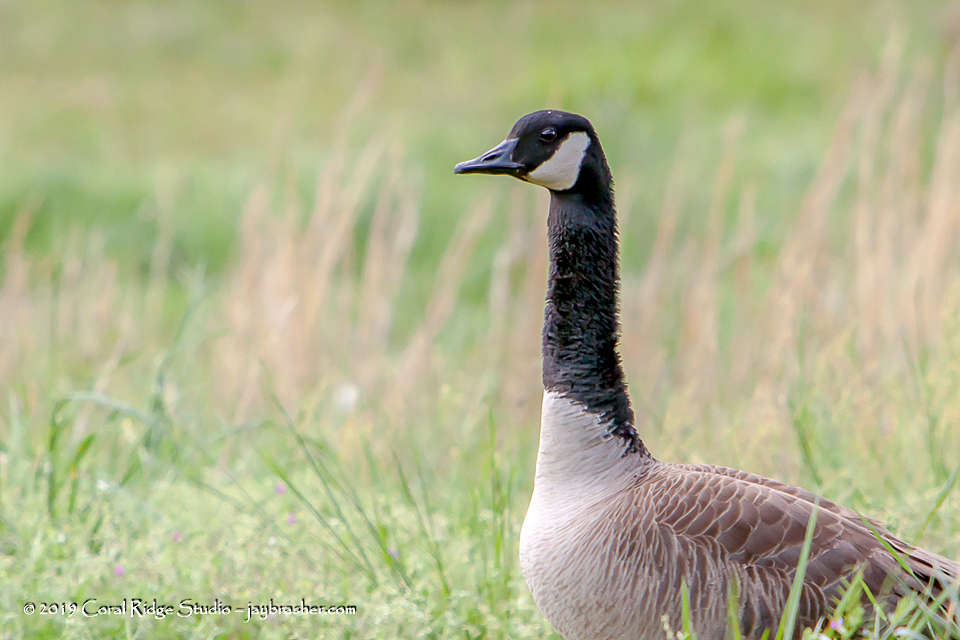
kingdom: Animalia
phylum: Chordata
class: Aves
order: Anseriformes
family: Anatidae
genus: Branta
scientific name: Branta canadensis
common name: Canada goose
